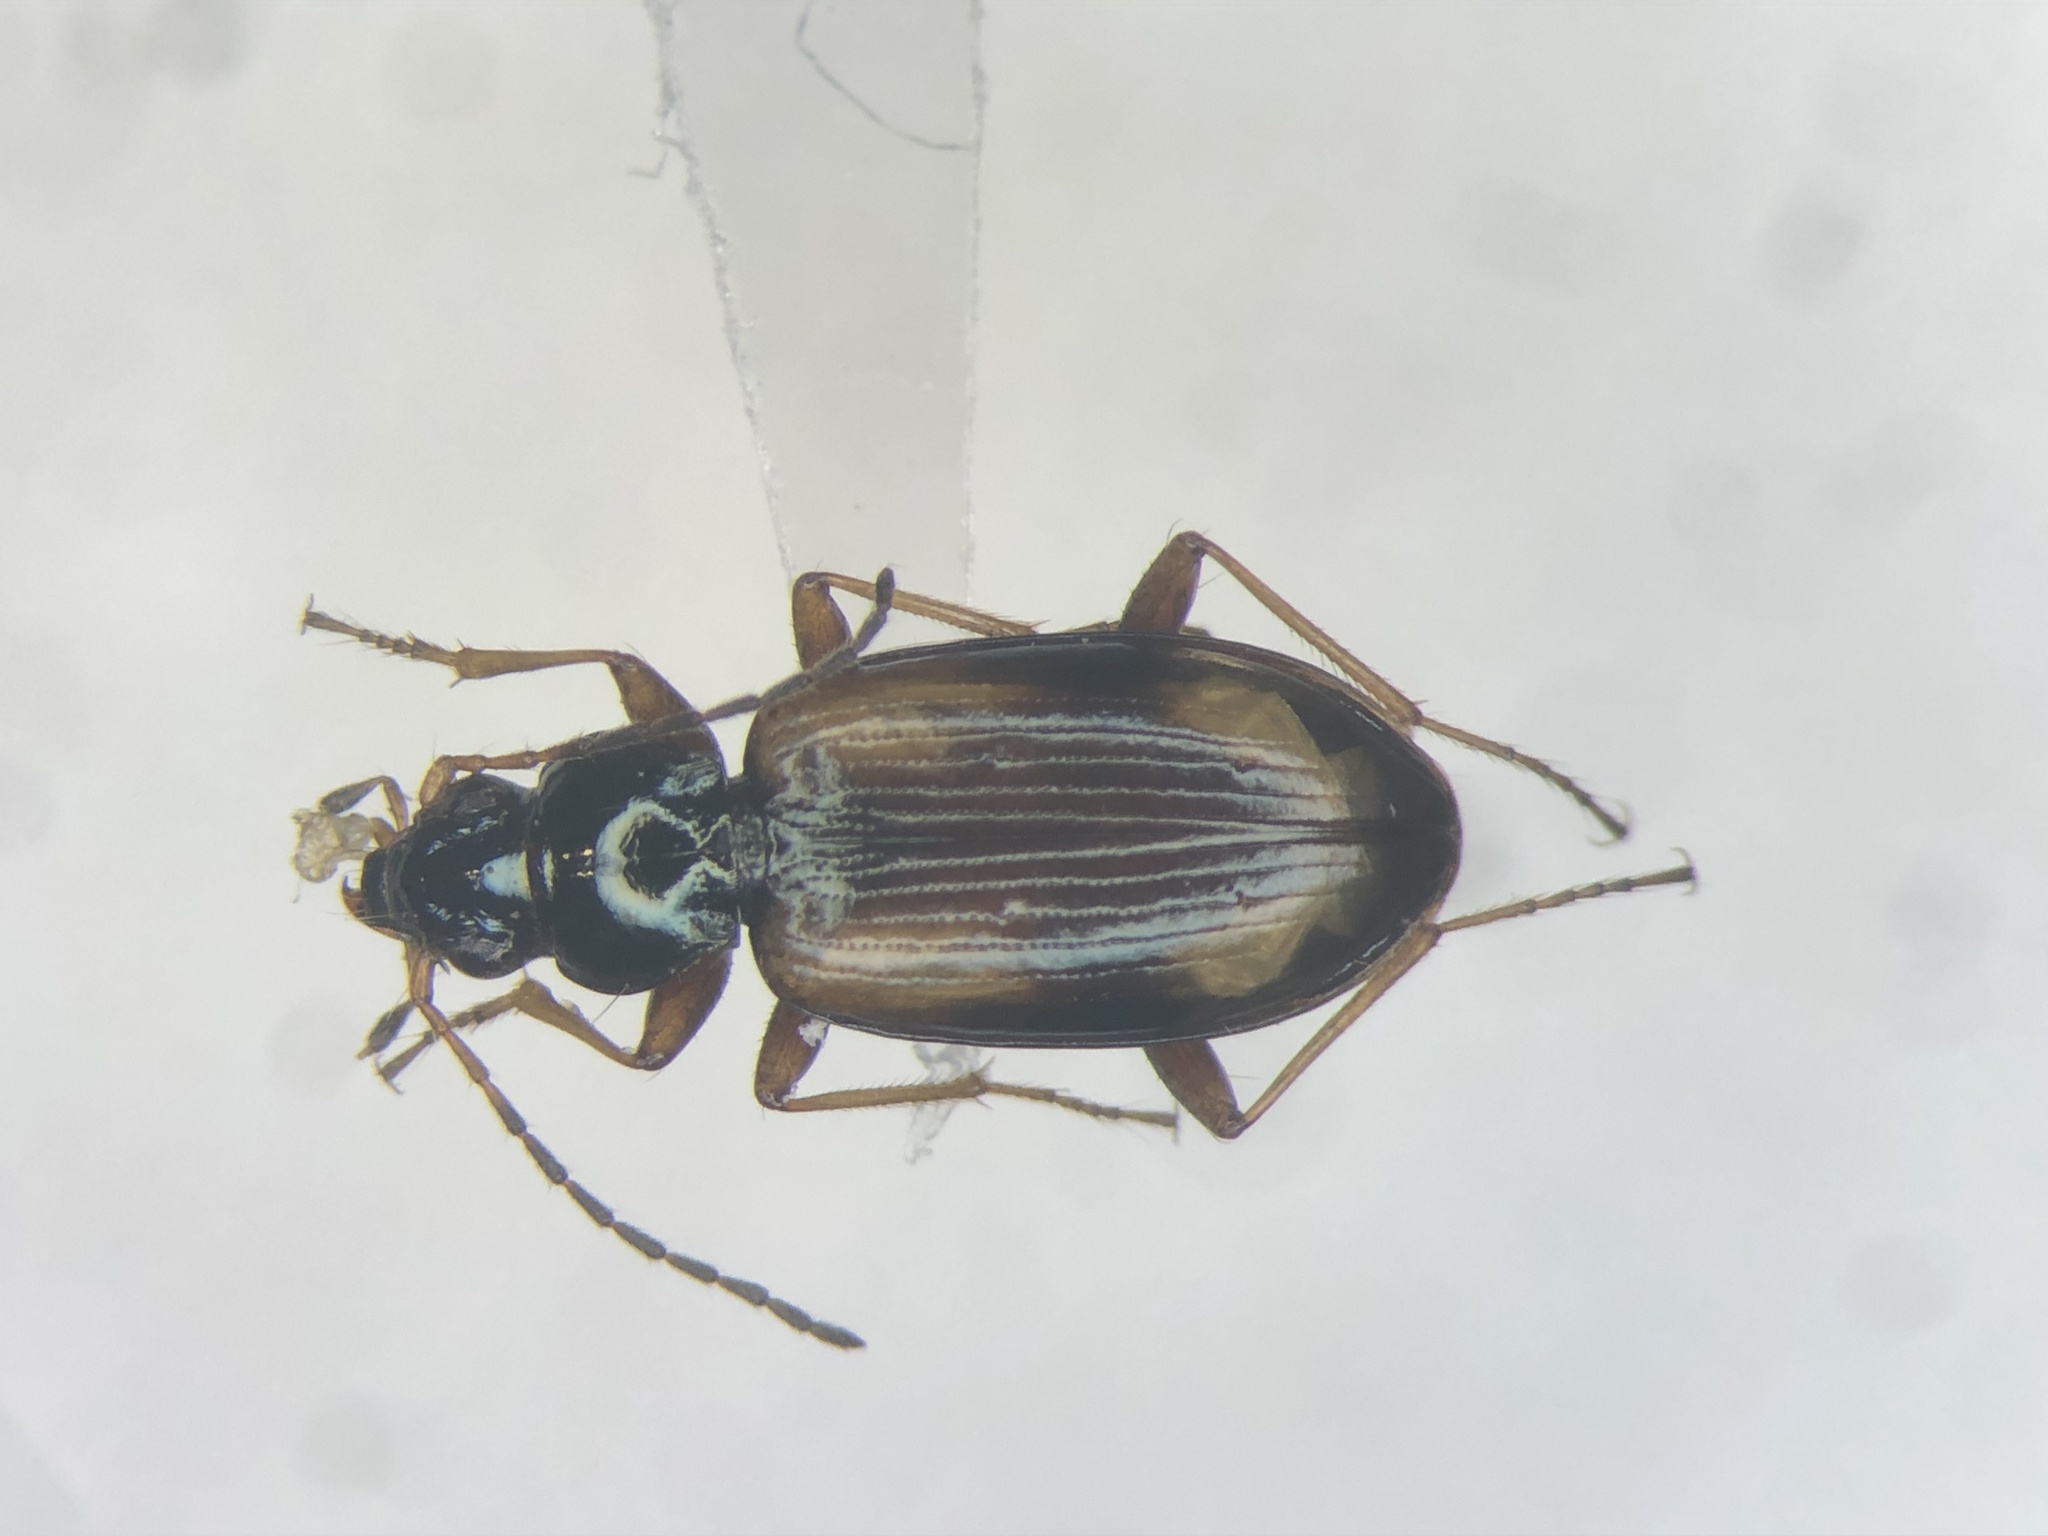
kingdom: Animalia
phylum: Arthropoda
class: Insecta
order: Coleoptera
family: Carabidae
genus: Bembidion
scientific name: Bembidion obscurellum
